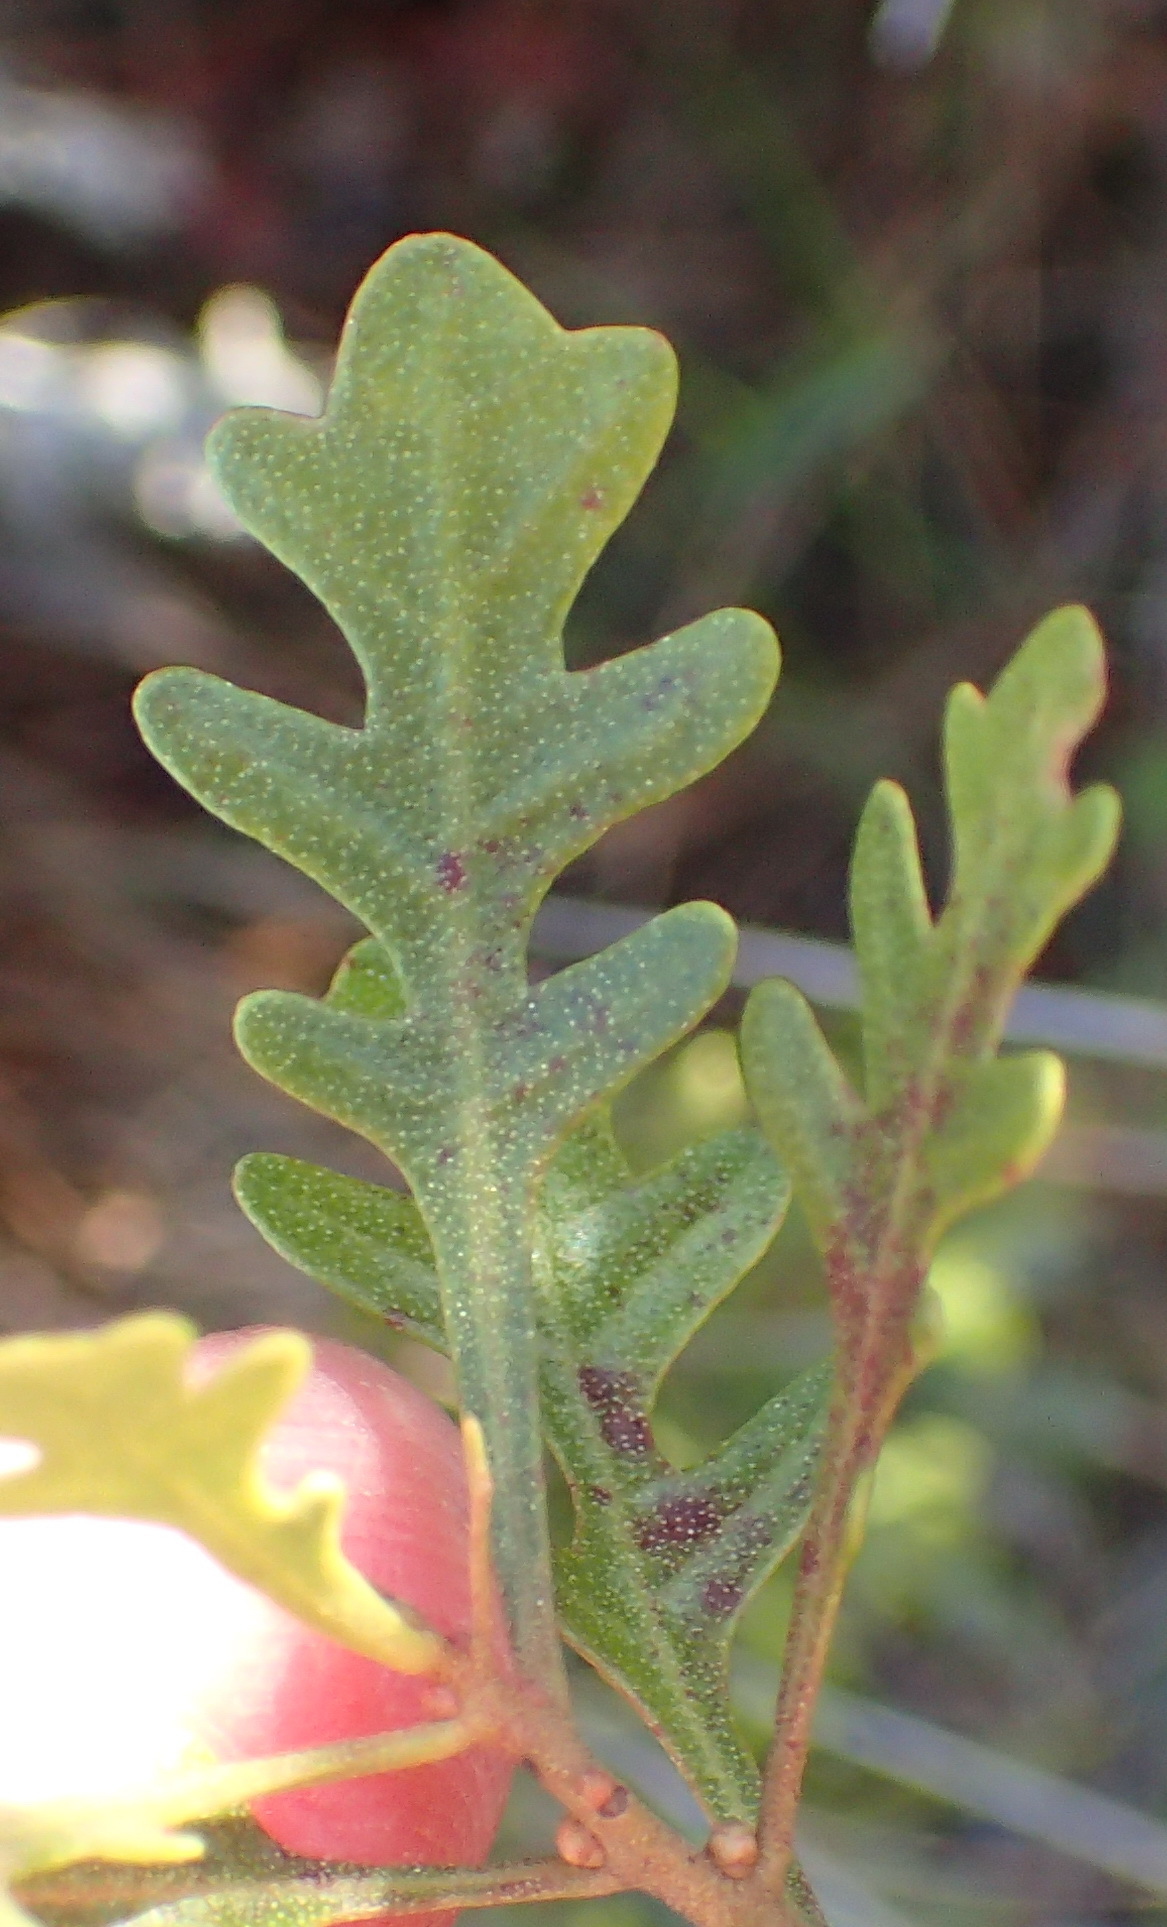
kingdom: Plantae
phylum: Tracheophyta
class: Magnoliopsida
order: Fagales
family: Myricaceae
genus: Morella
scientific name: Morella quercifolia
